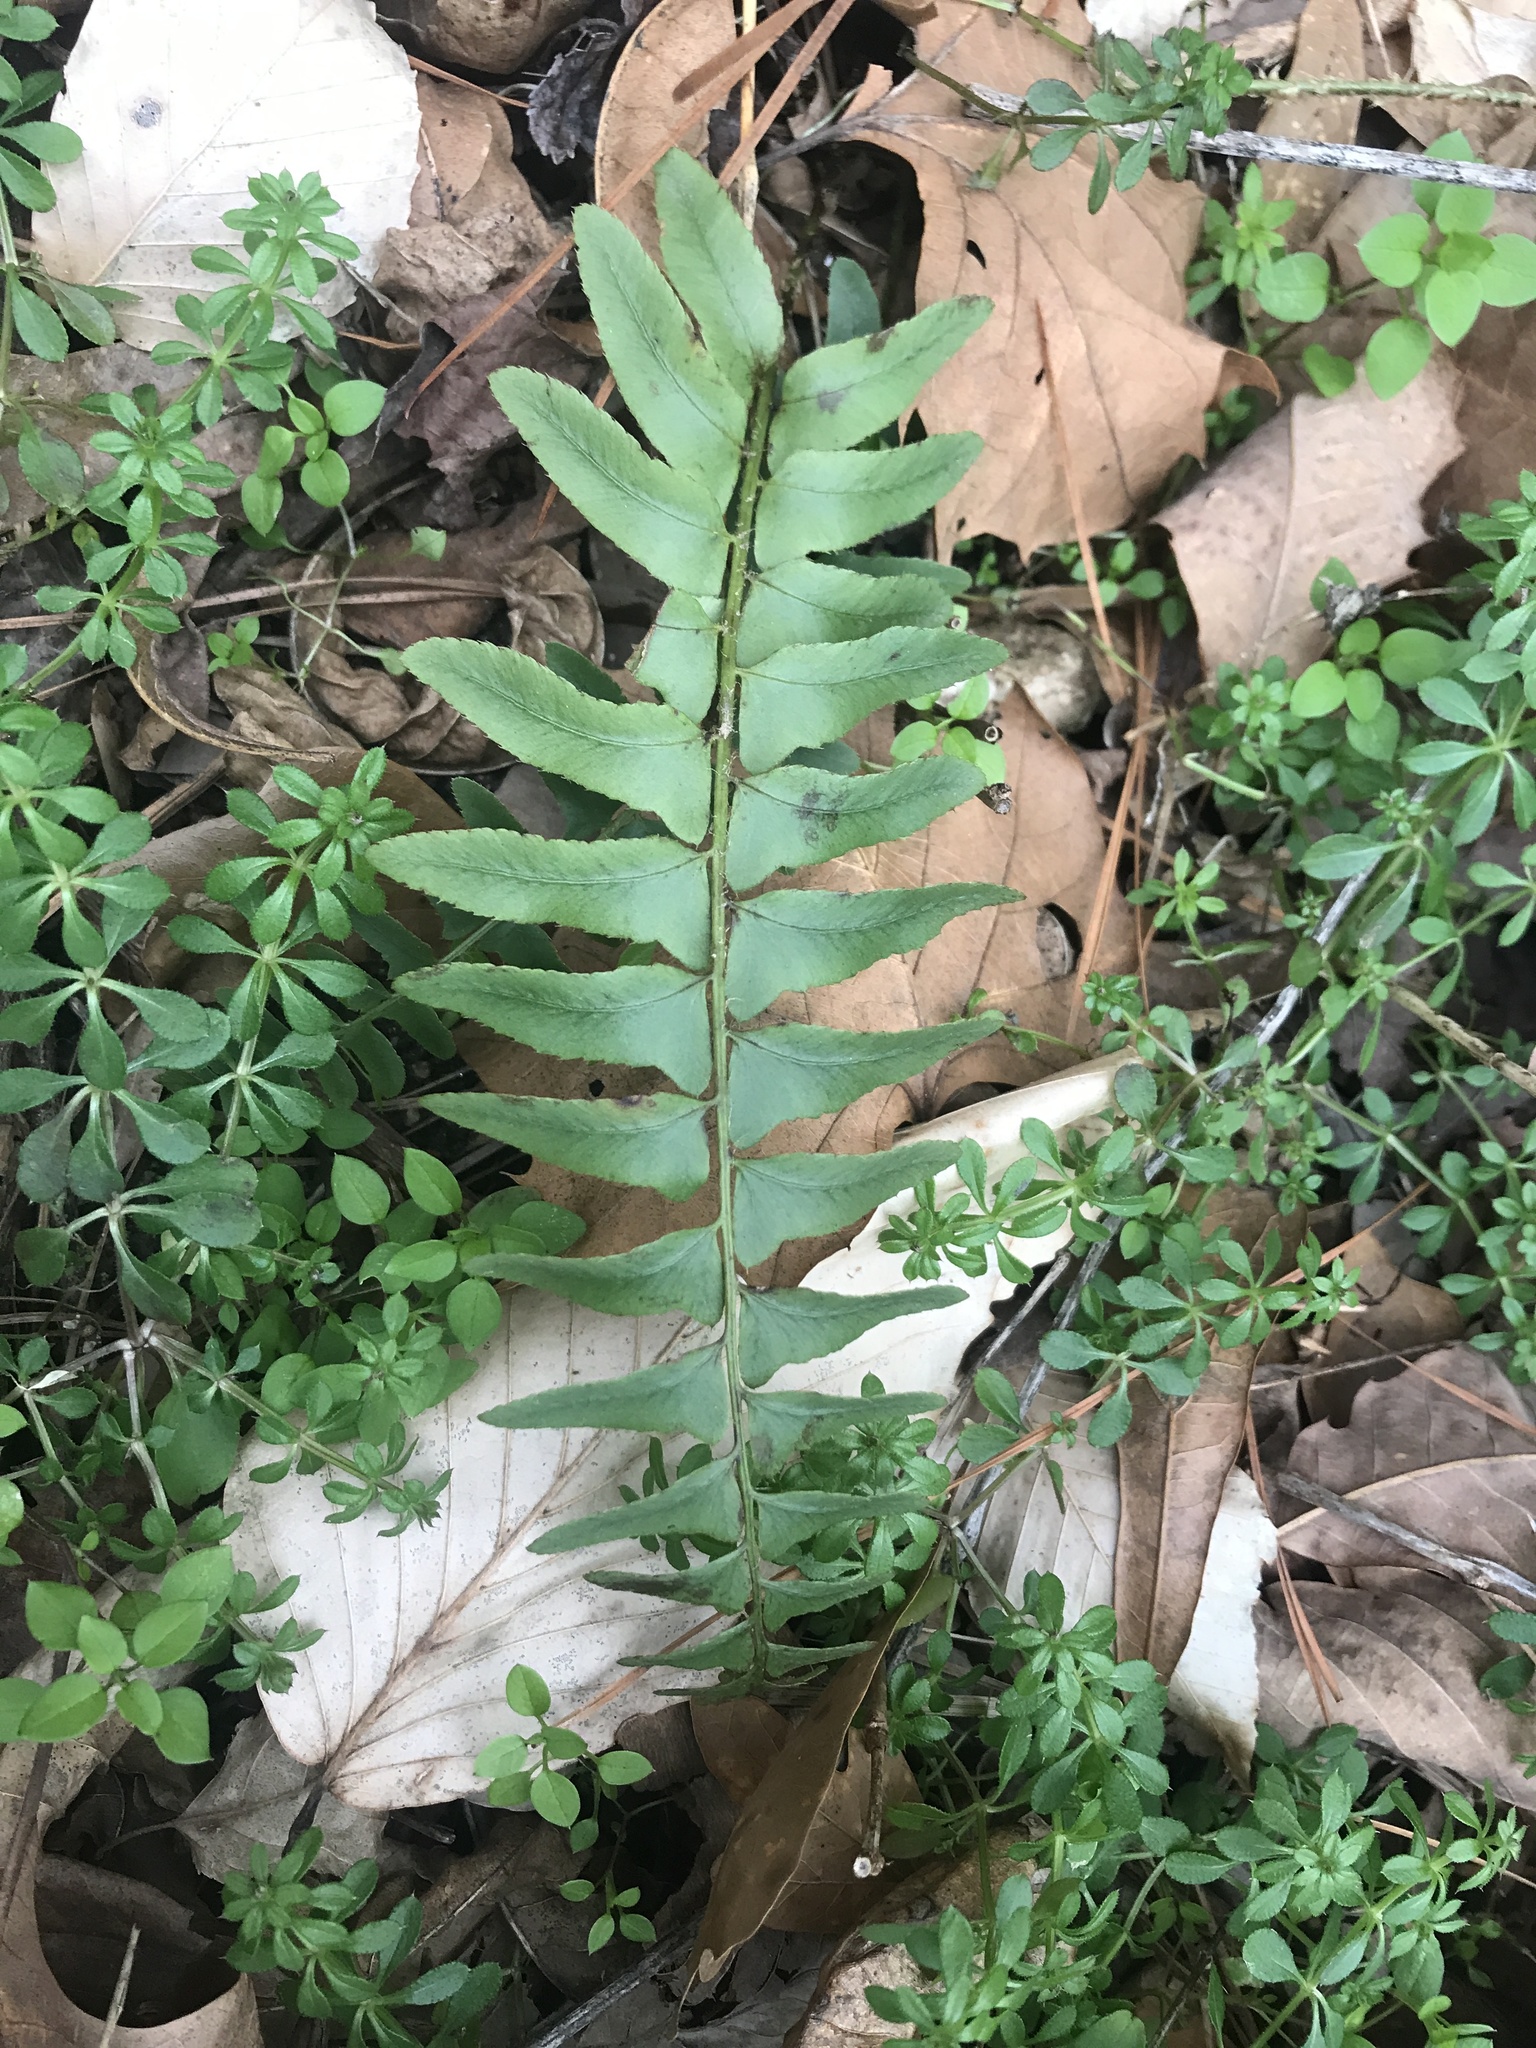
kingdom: Plantae
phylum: Tracheophyta
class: Polypodiopsida
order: Polypodiales
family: Dryopteridaceae
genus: Polystichum
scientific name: Polystichum acrostichoides
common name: Christmas fern
